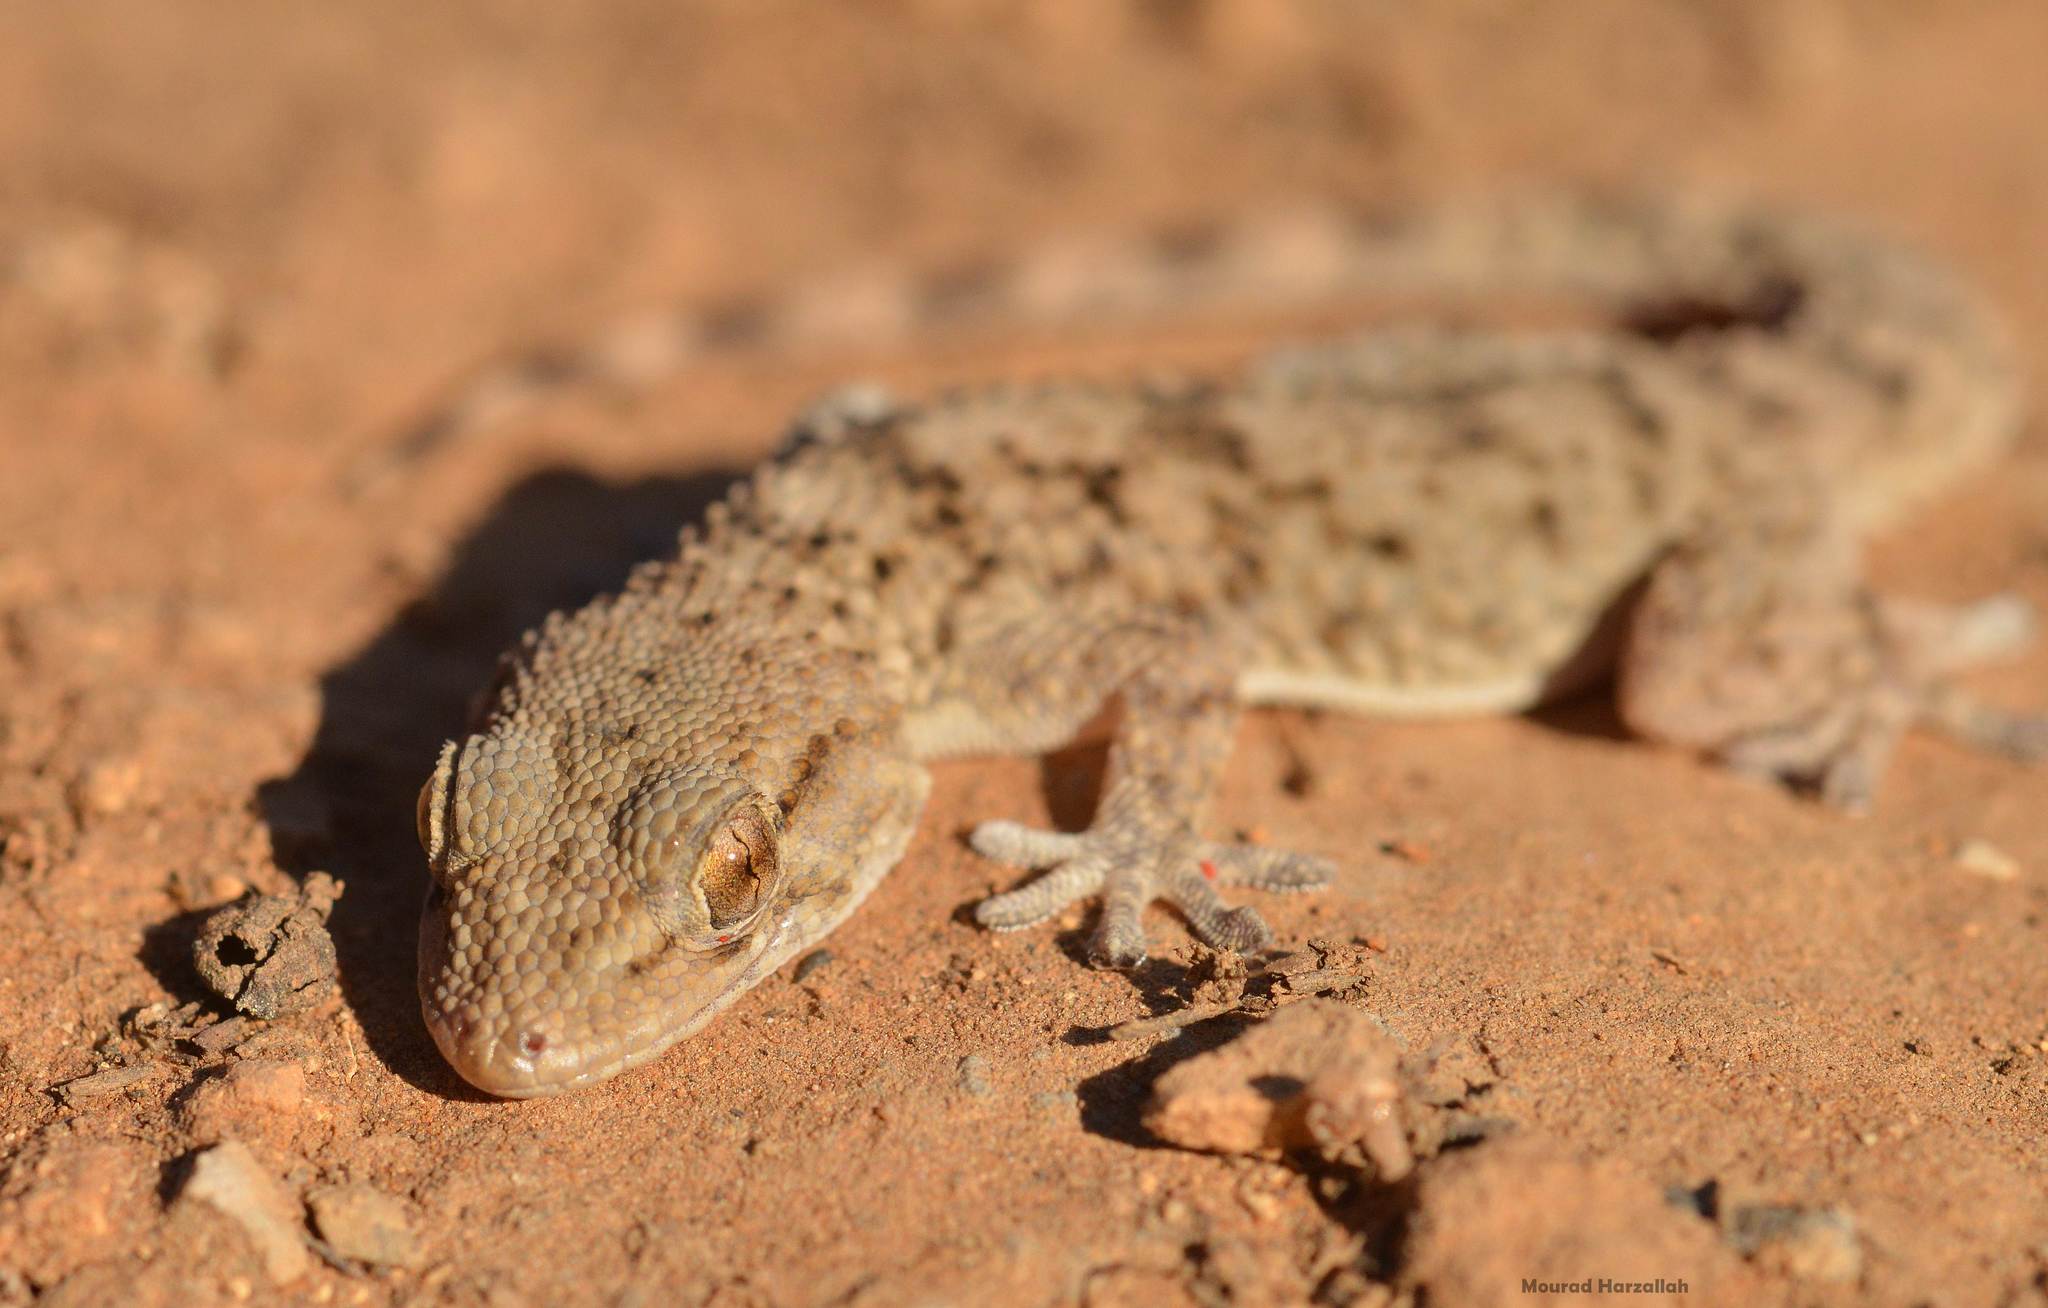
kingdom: Animalia
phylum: Chordata
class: Squamata
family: Phyllodactylidae
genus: Tarentola
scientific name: Tarentola mauritanica
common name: Moorish gecko
